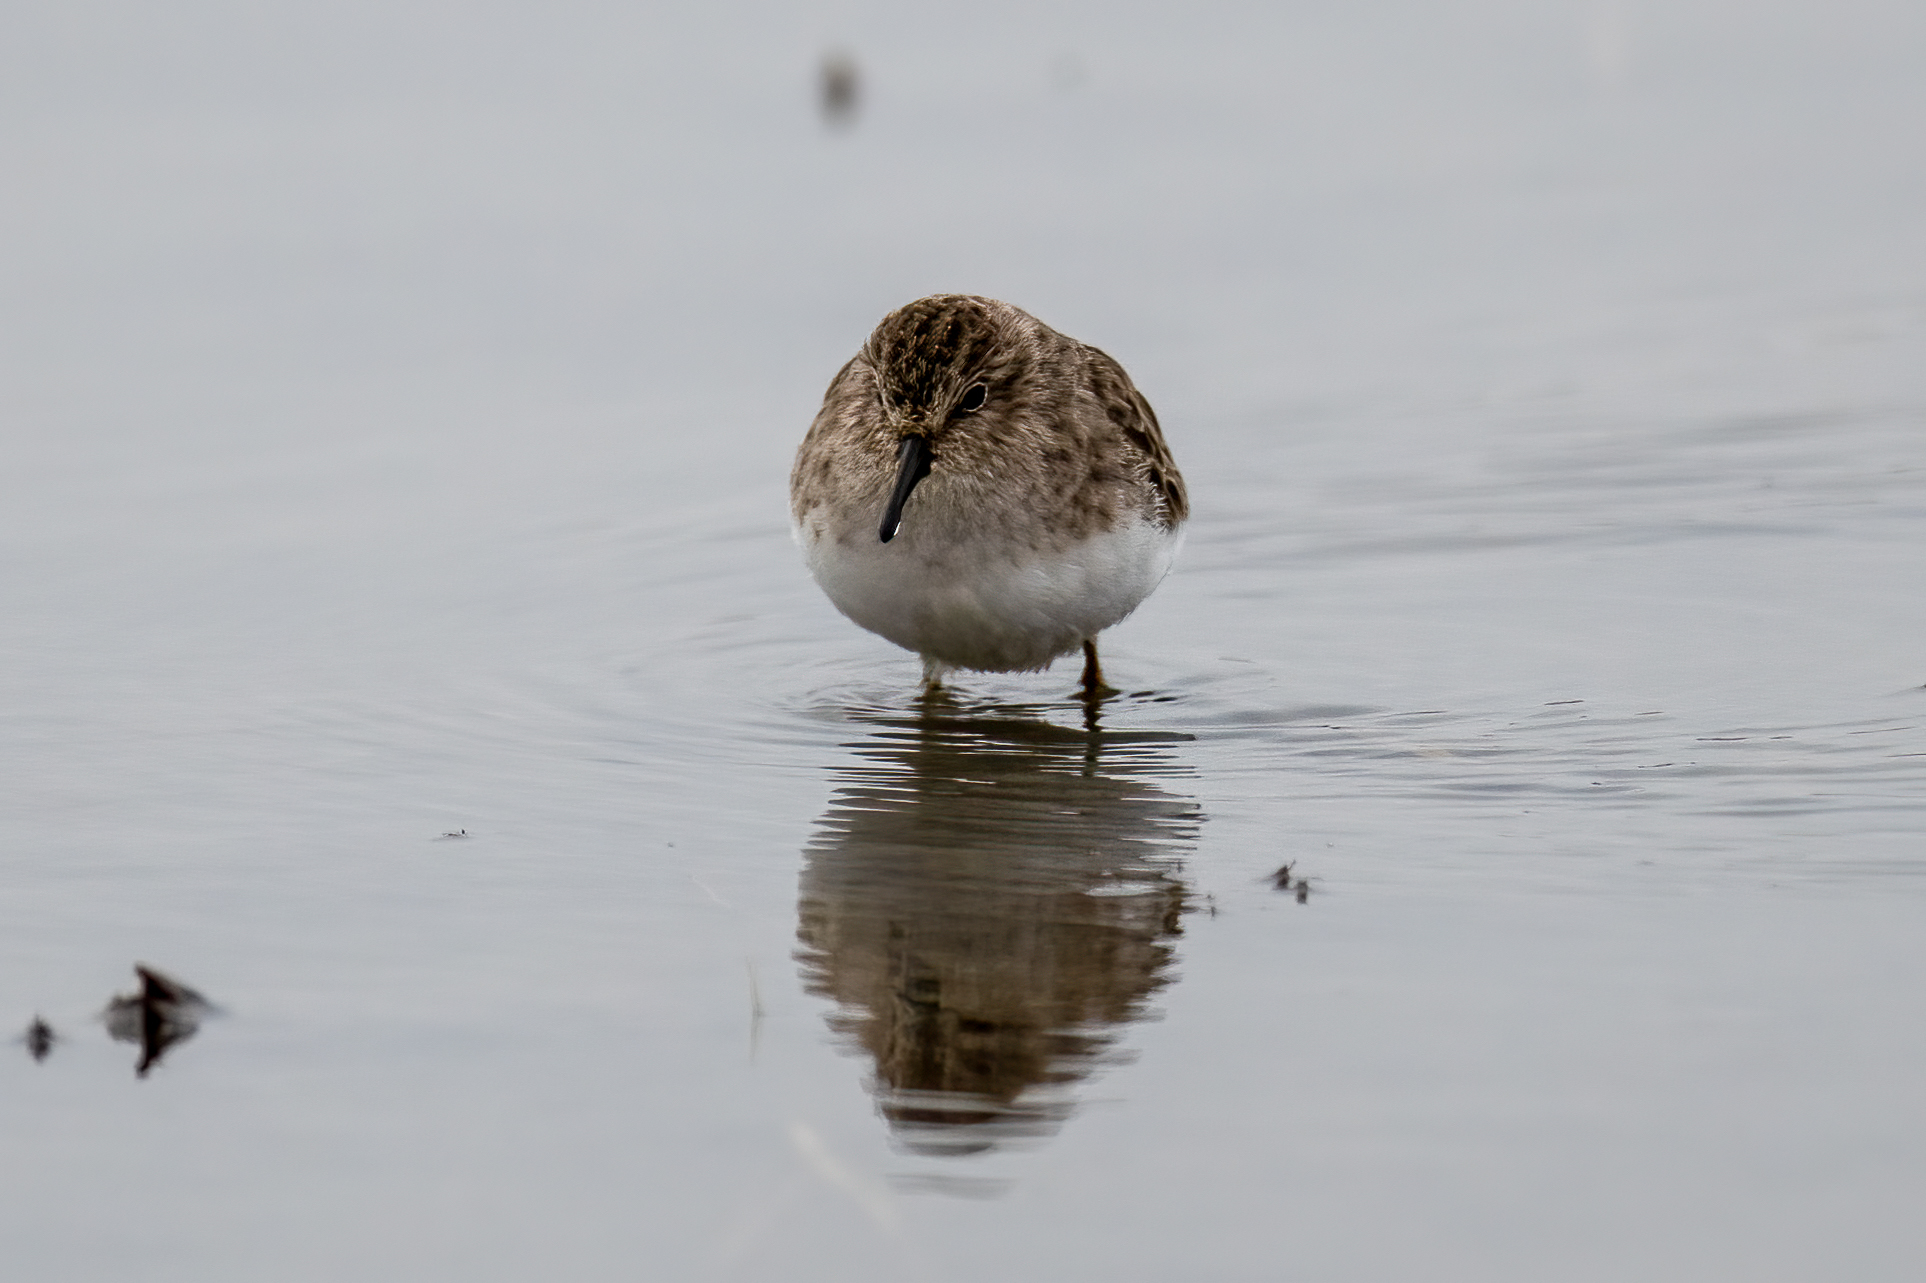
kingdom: Animalia
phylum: Chordata
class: Aves
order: Charadriiformes
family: Scolopacidae
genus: Calidris
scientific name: Calidris minutilla
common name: Least sandpiper
